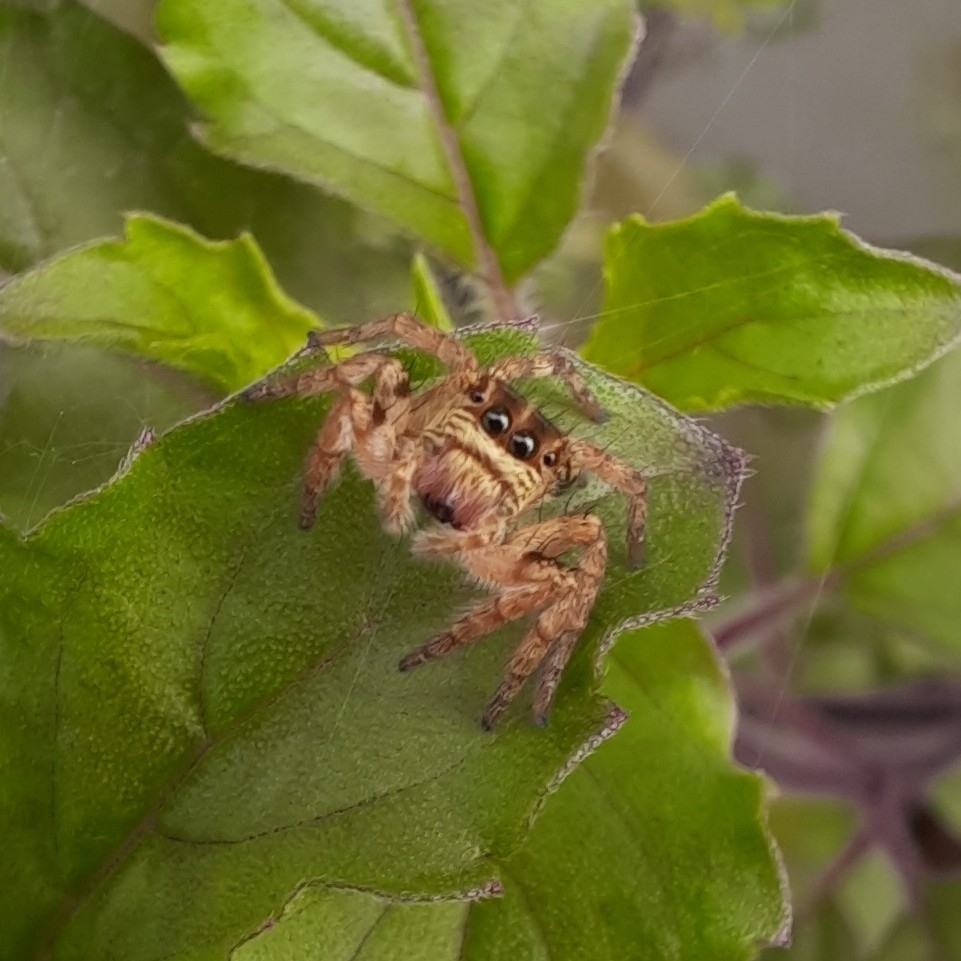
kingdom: Animalia
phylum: Arthropoda
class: Arachnida
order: Araneae
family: Salticidae
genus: Carrhotus
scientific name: Carrhotus viduus
